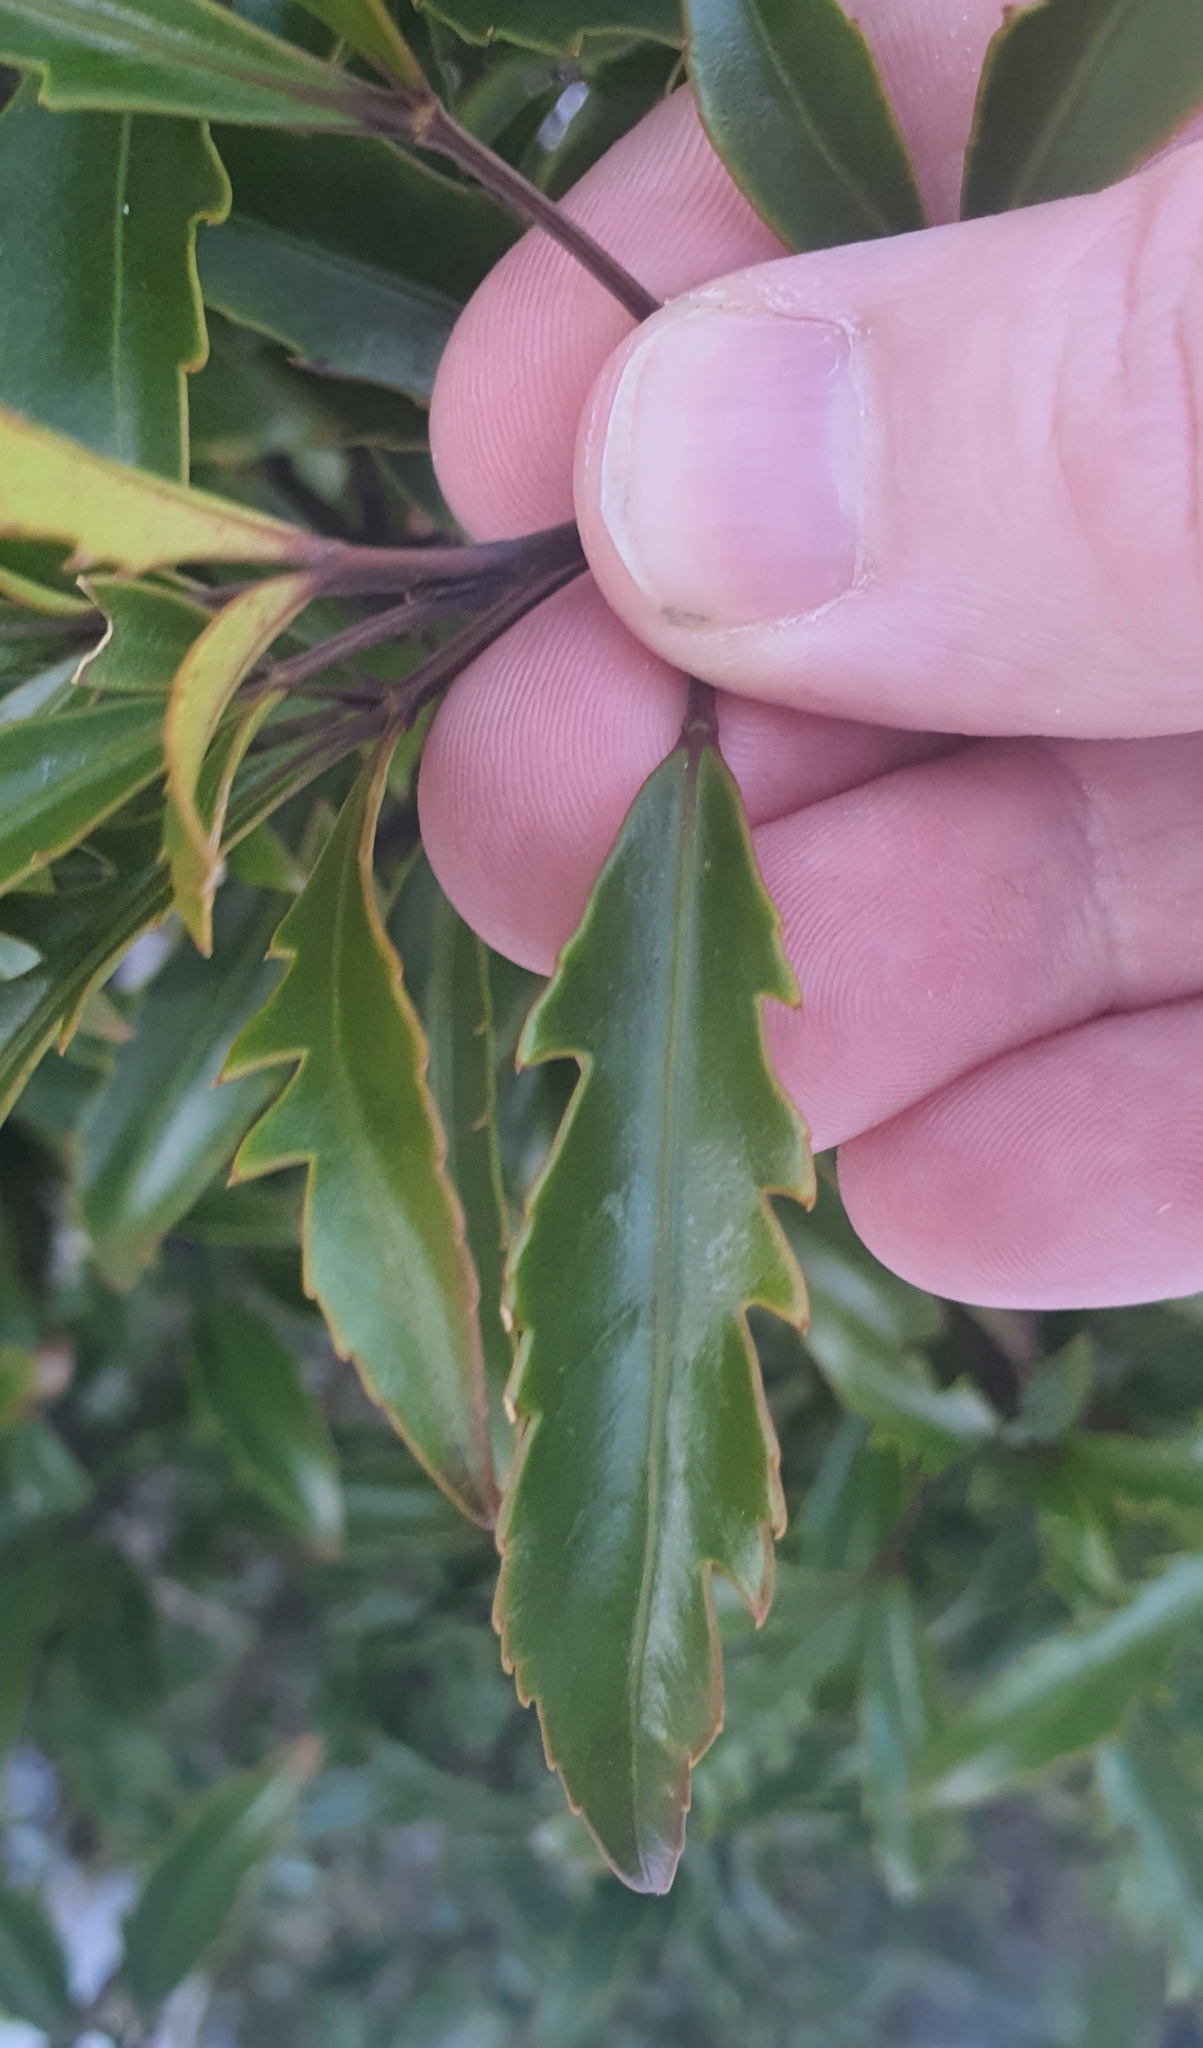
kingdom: Plantae
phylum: Tracheophyta
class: Magnoliopsida
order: Apiales
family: Araliaceae
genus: Raukaua
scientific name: Raukaua simplex
